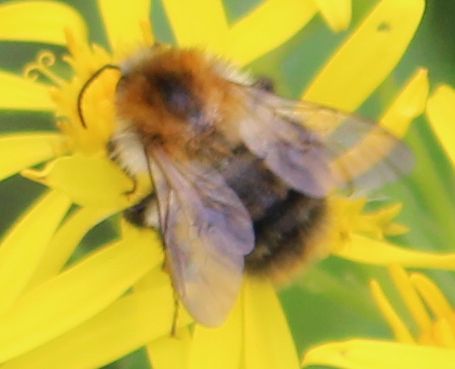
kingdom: Animalia
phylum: Arthropoda
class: Insecta
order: Hymenoptera
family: Apidae
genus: Bombus
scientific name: Bombus pascuorum
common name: Common carder bee
